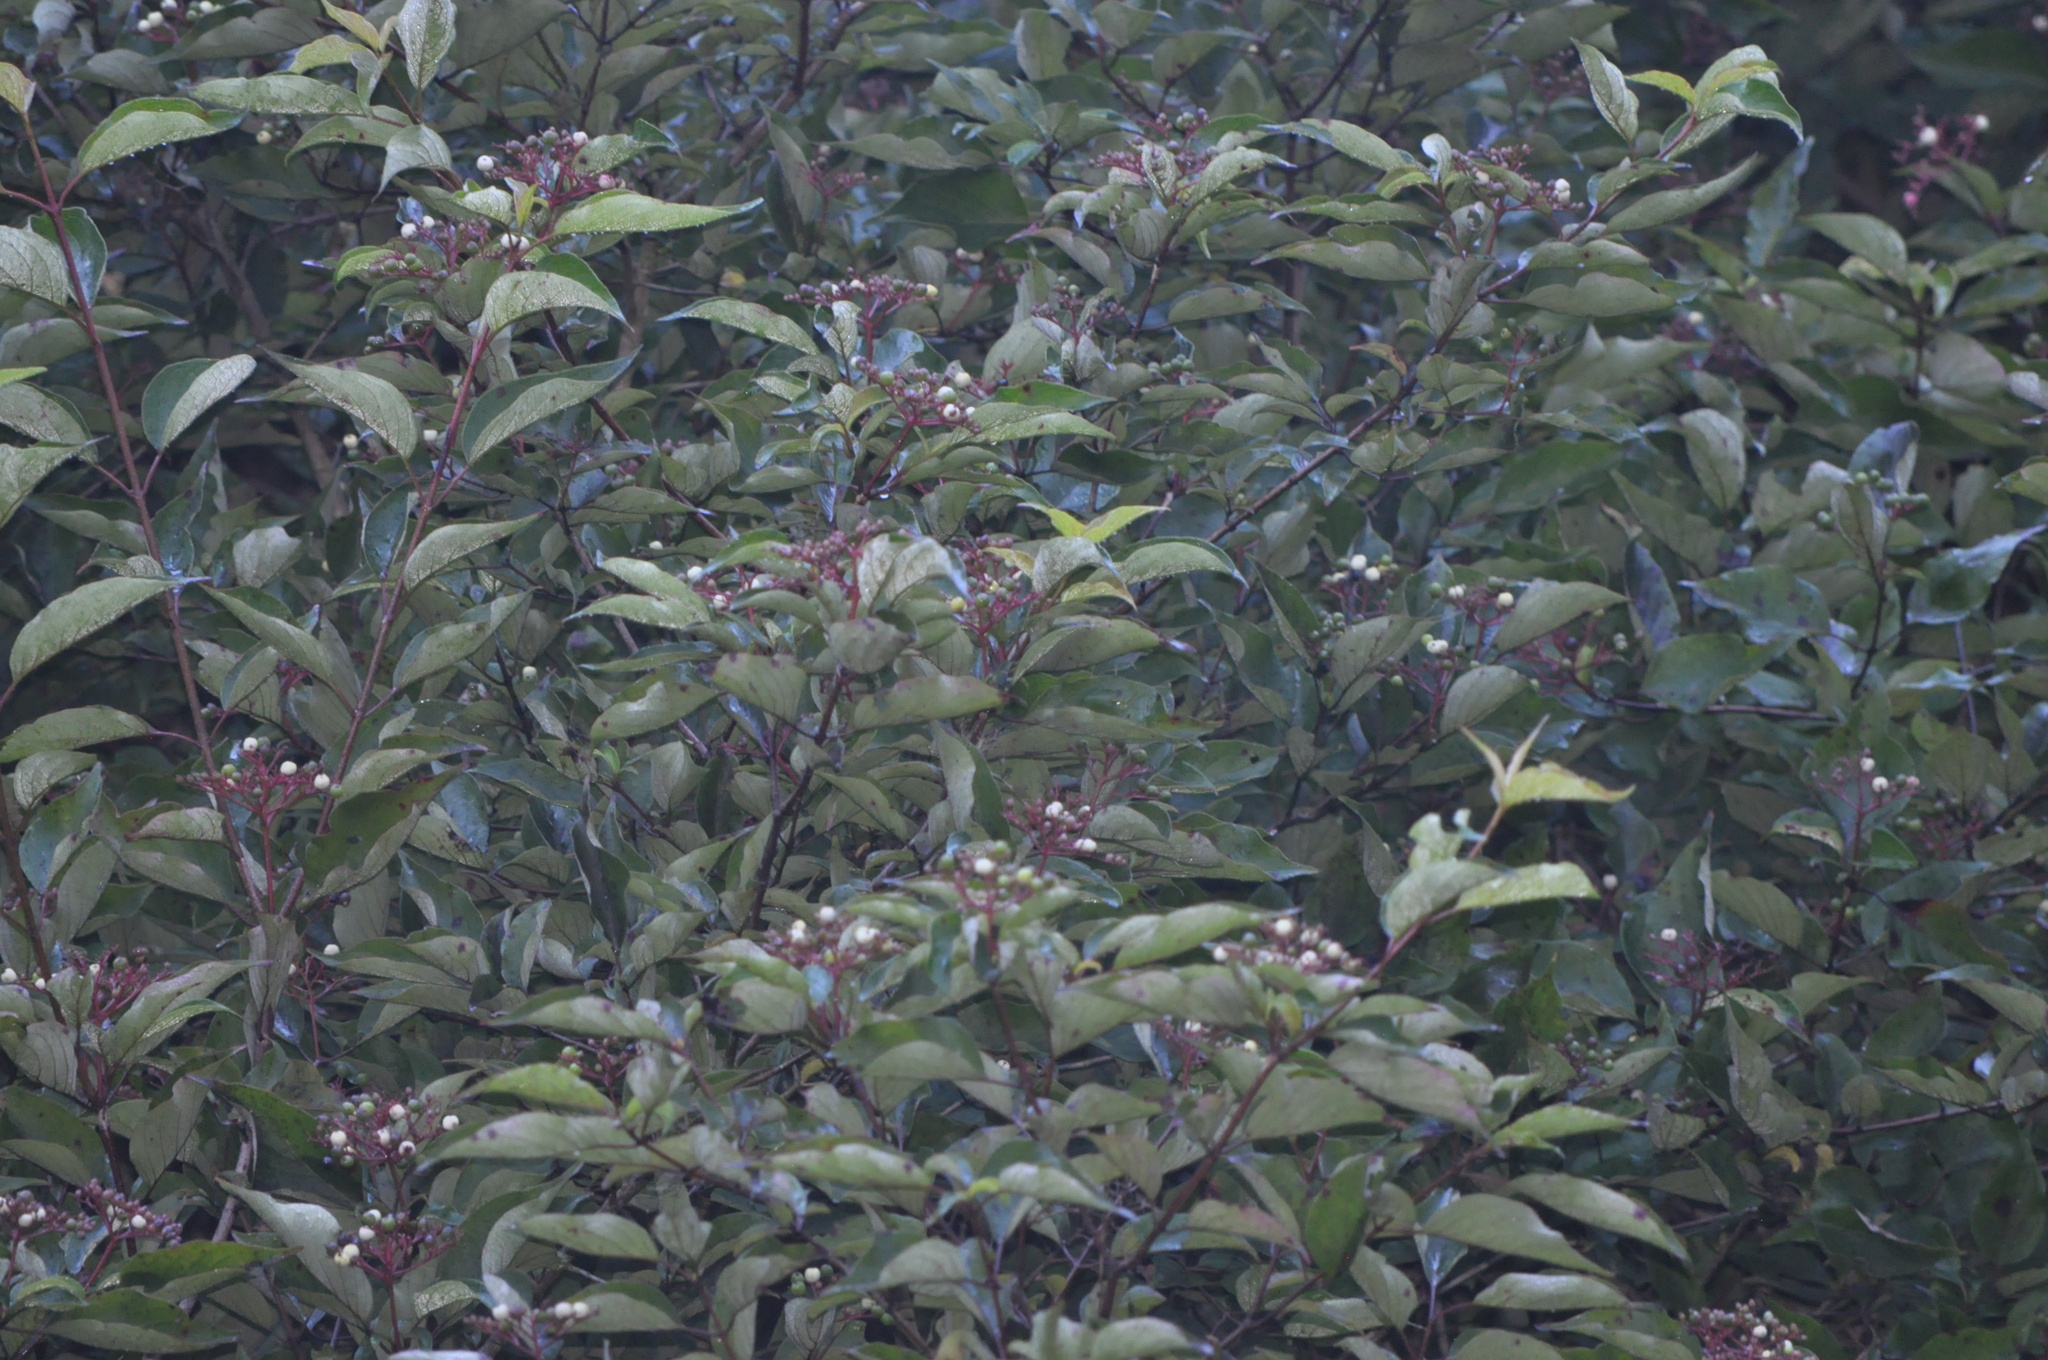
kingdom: Plantae
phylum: Tracheophyta
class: Magnoliopsida
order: Cornales
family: Cornaceae
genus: Cornus
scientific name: Cornus amomum
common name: Silky dogwood
